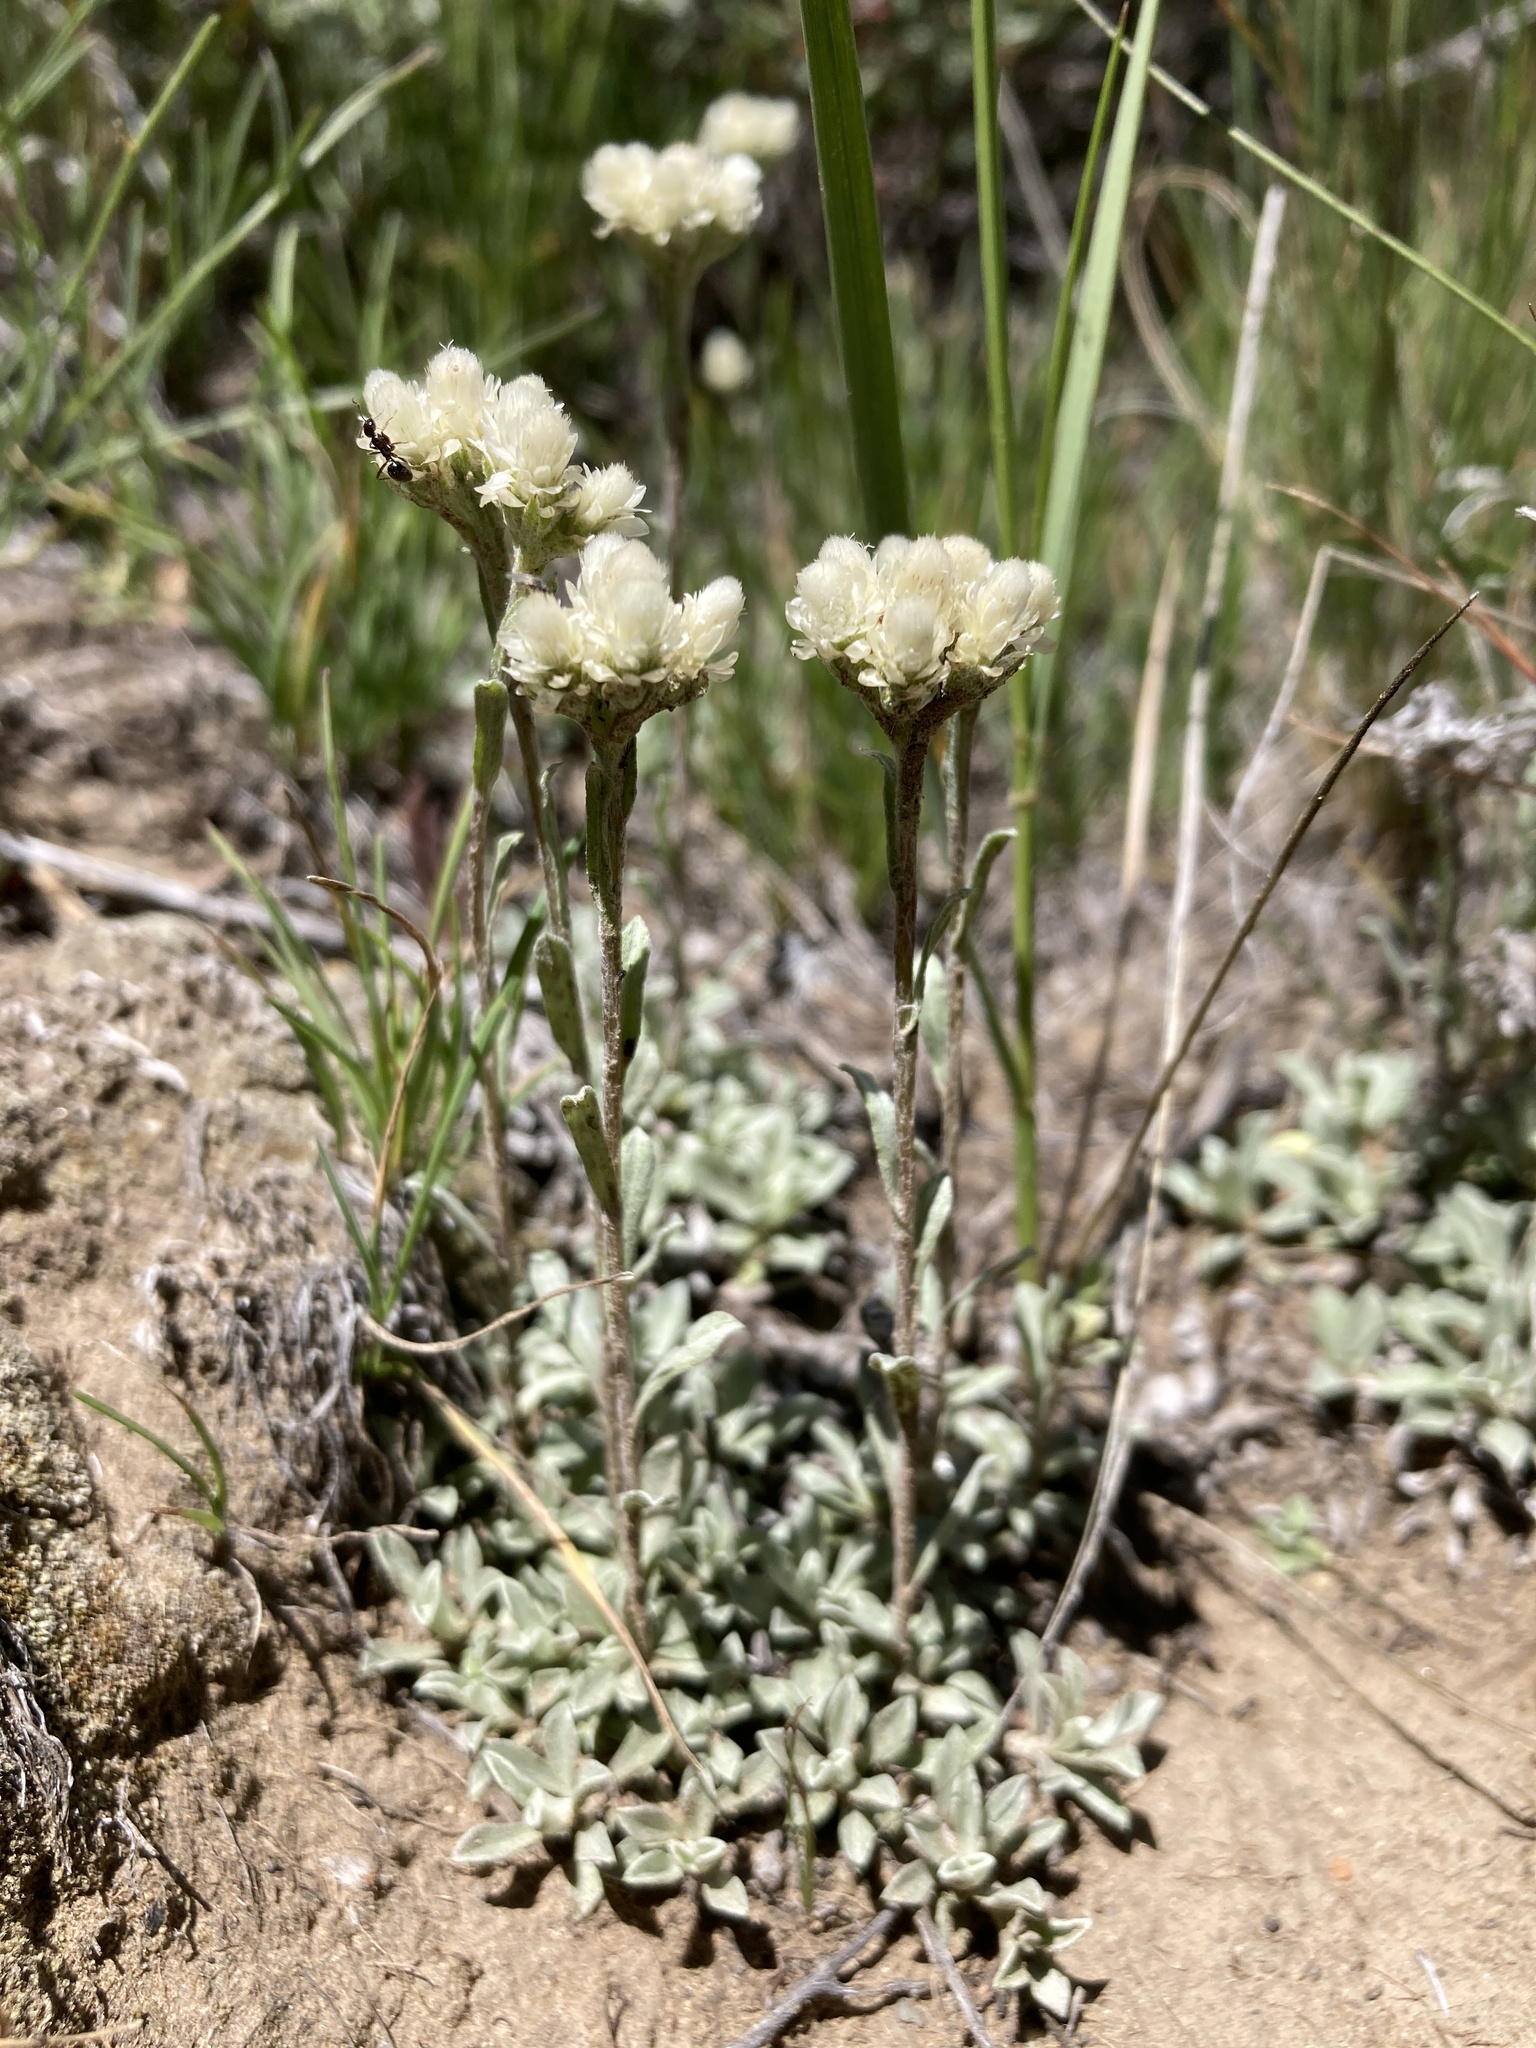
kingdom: Plantae
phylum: Tracheophyta
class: Magnoliopsida
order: Asterales
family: Asteraceae
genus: Antennaria
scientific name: Antennaria parvifolia
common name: Nuttall's pussytoes
